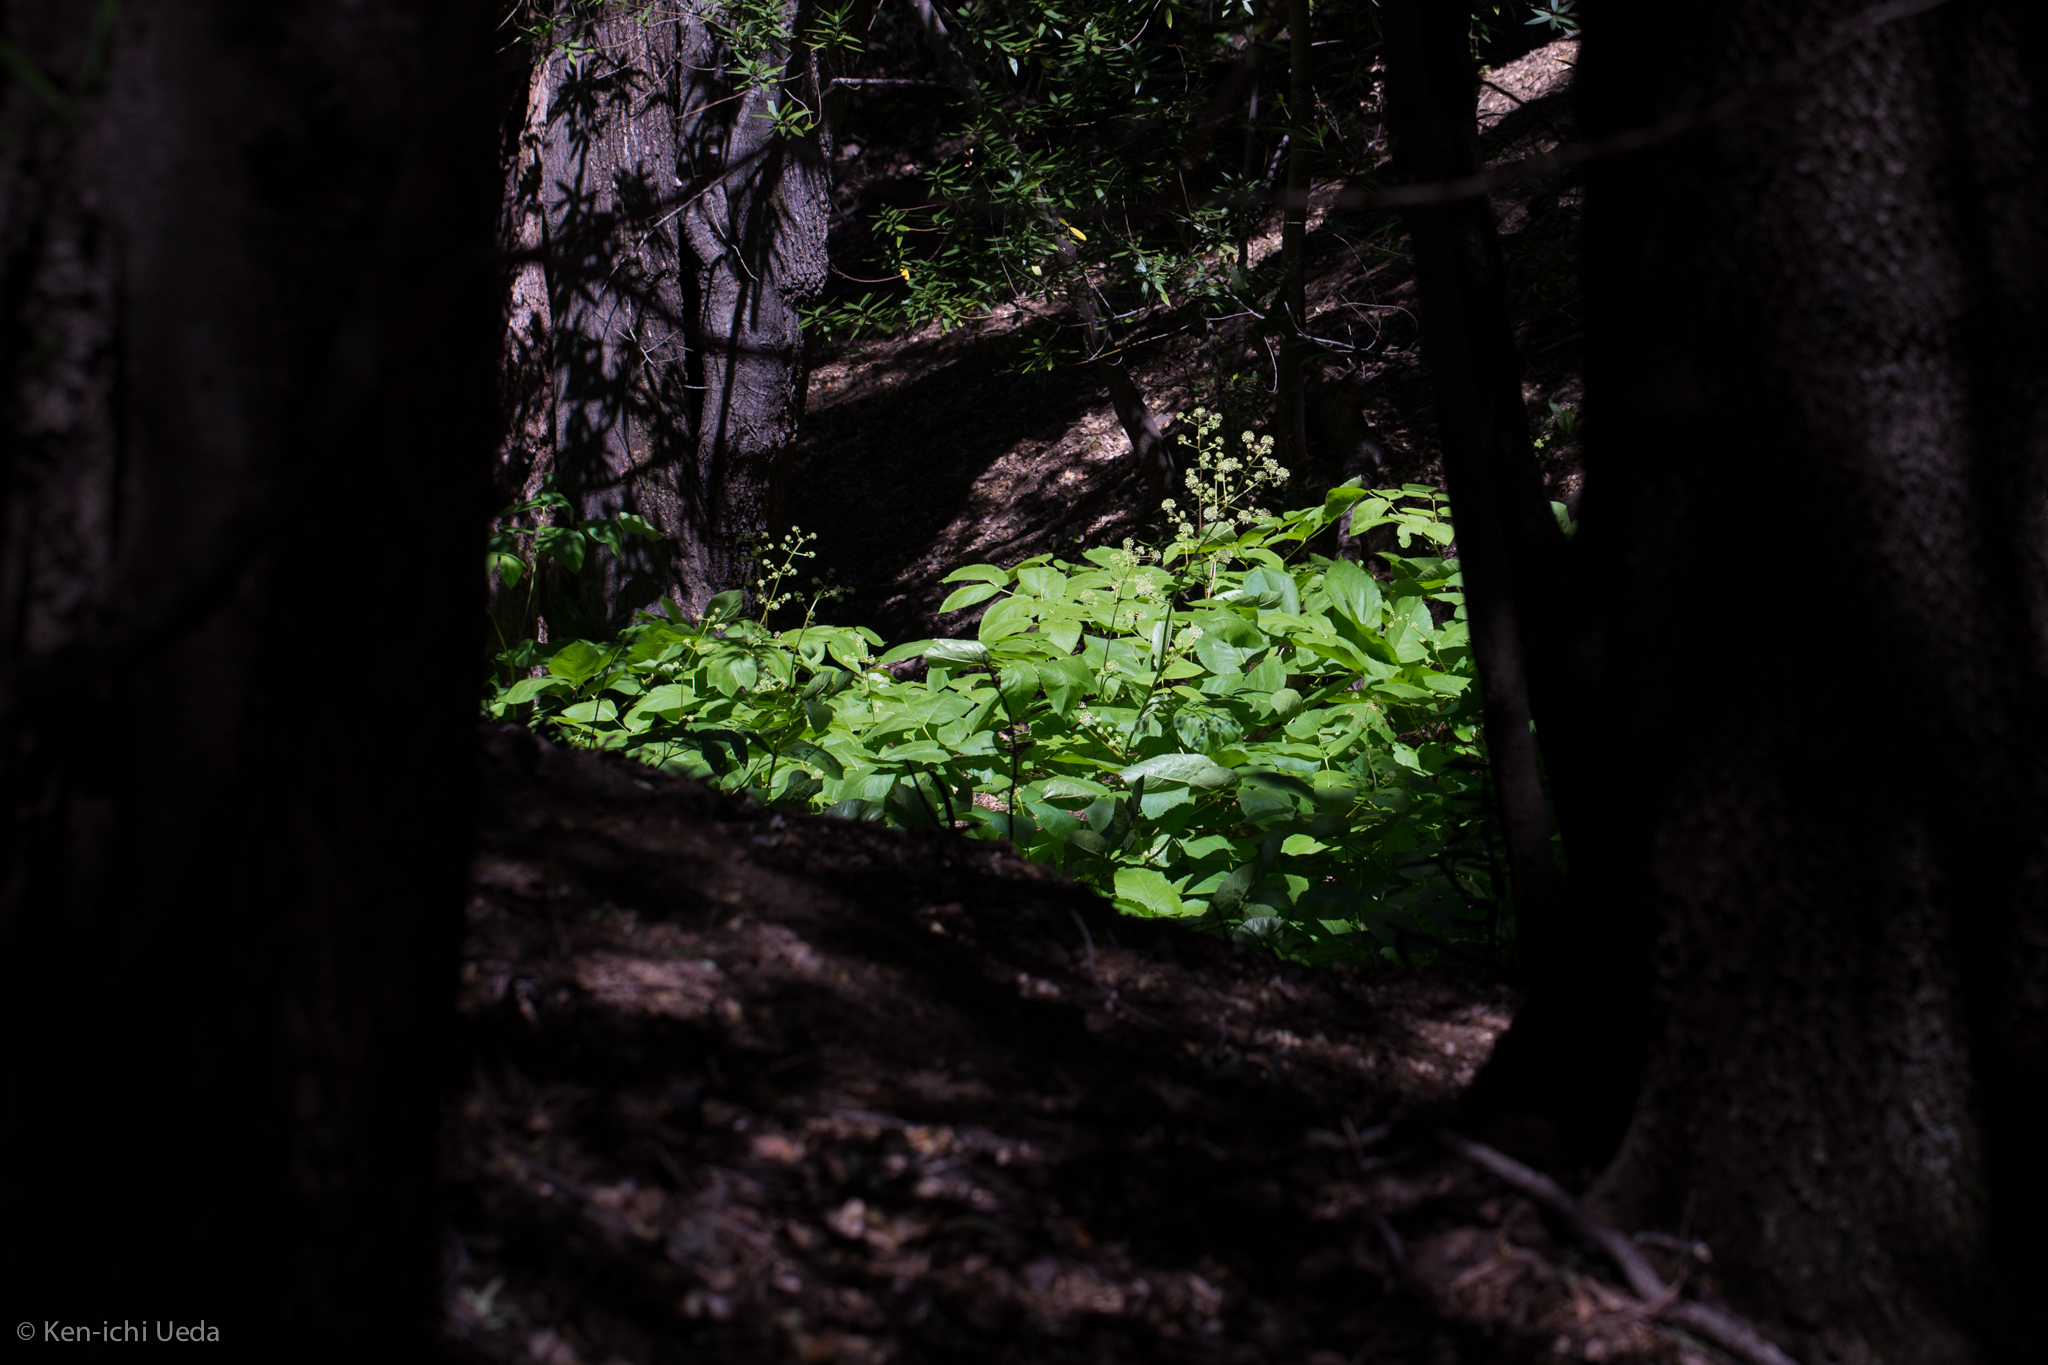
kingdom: Plantae
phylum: Tracheophyta
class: Magnoliopsida
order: Apiales
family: Araliaceae
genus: Aralia
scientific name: Aralia californica
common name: California-ginseng
